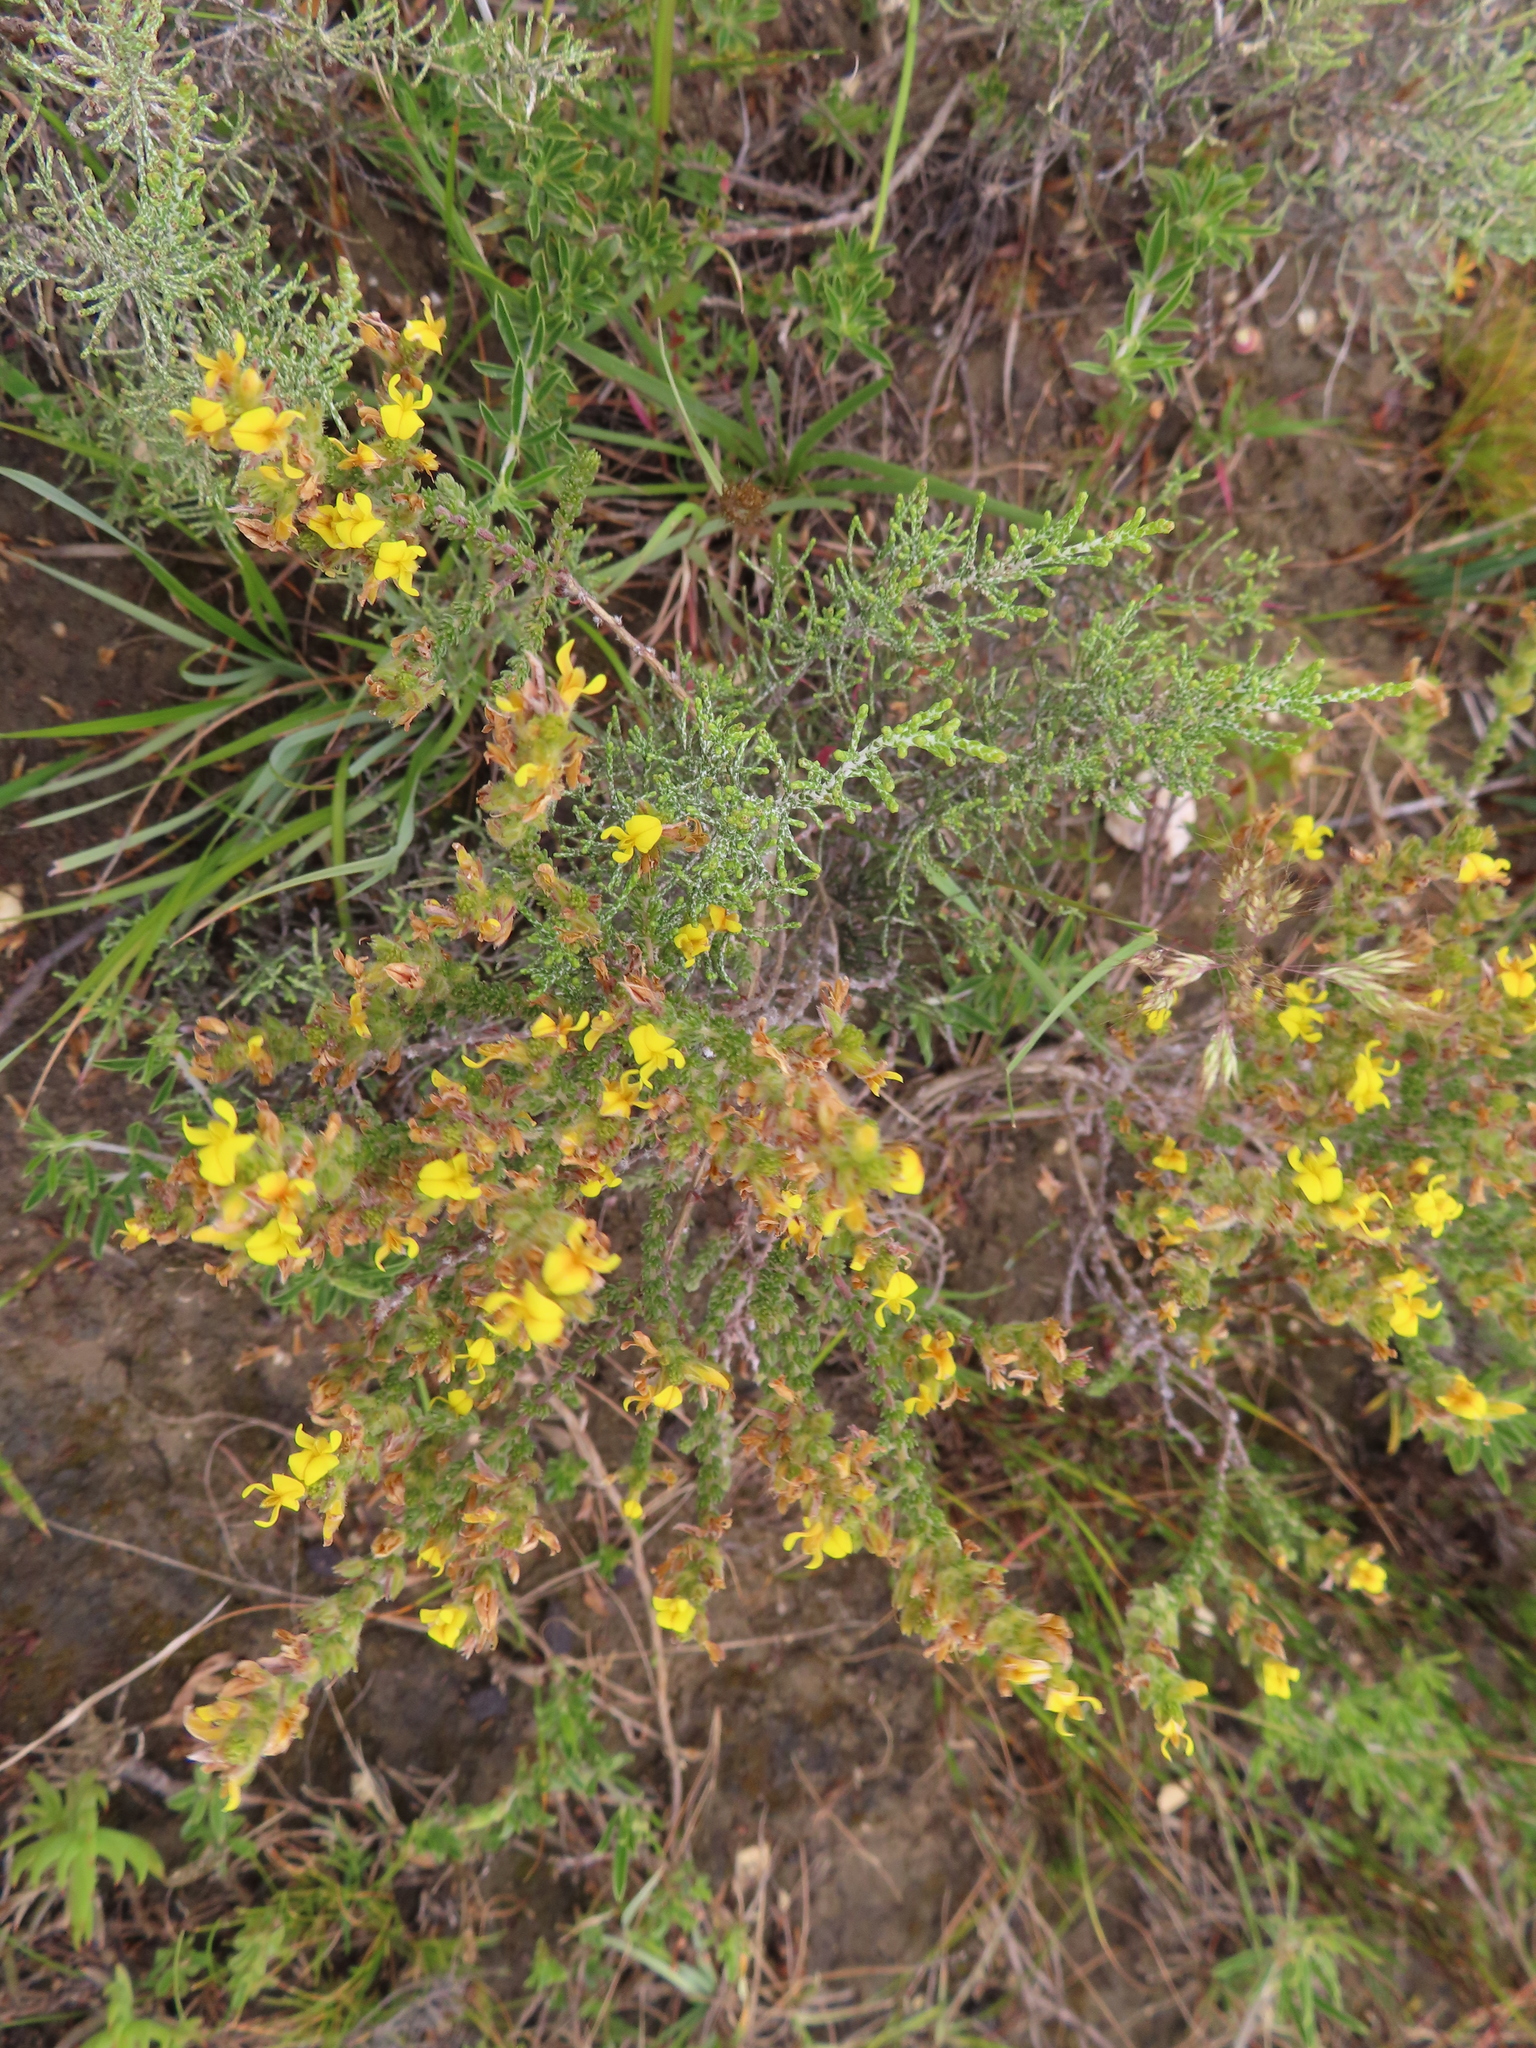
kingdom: Plantae
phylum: Tracheophyta
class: Magnoliopsida
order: Fabales
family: Fabaceae
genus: Aspalathus
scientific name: Aspalathus ericifolia
